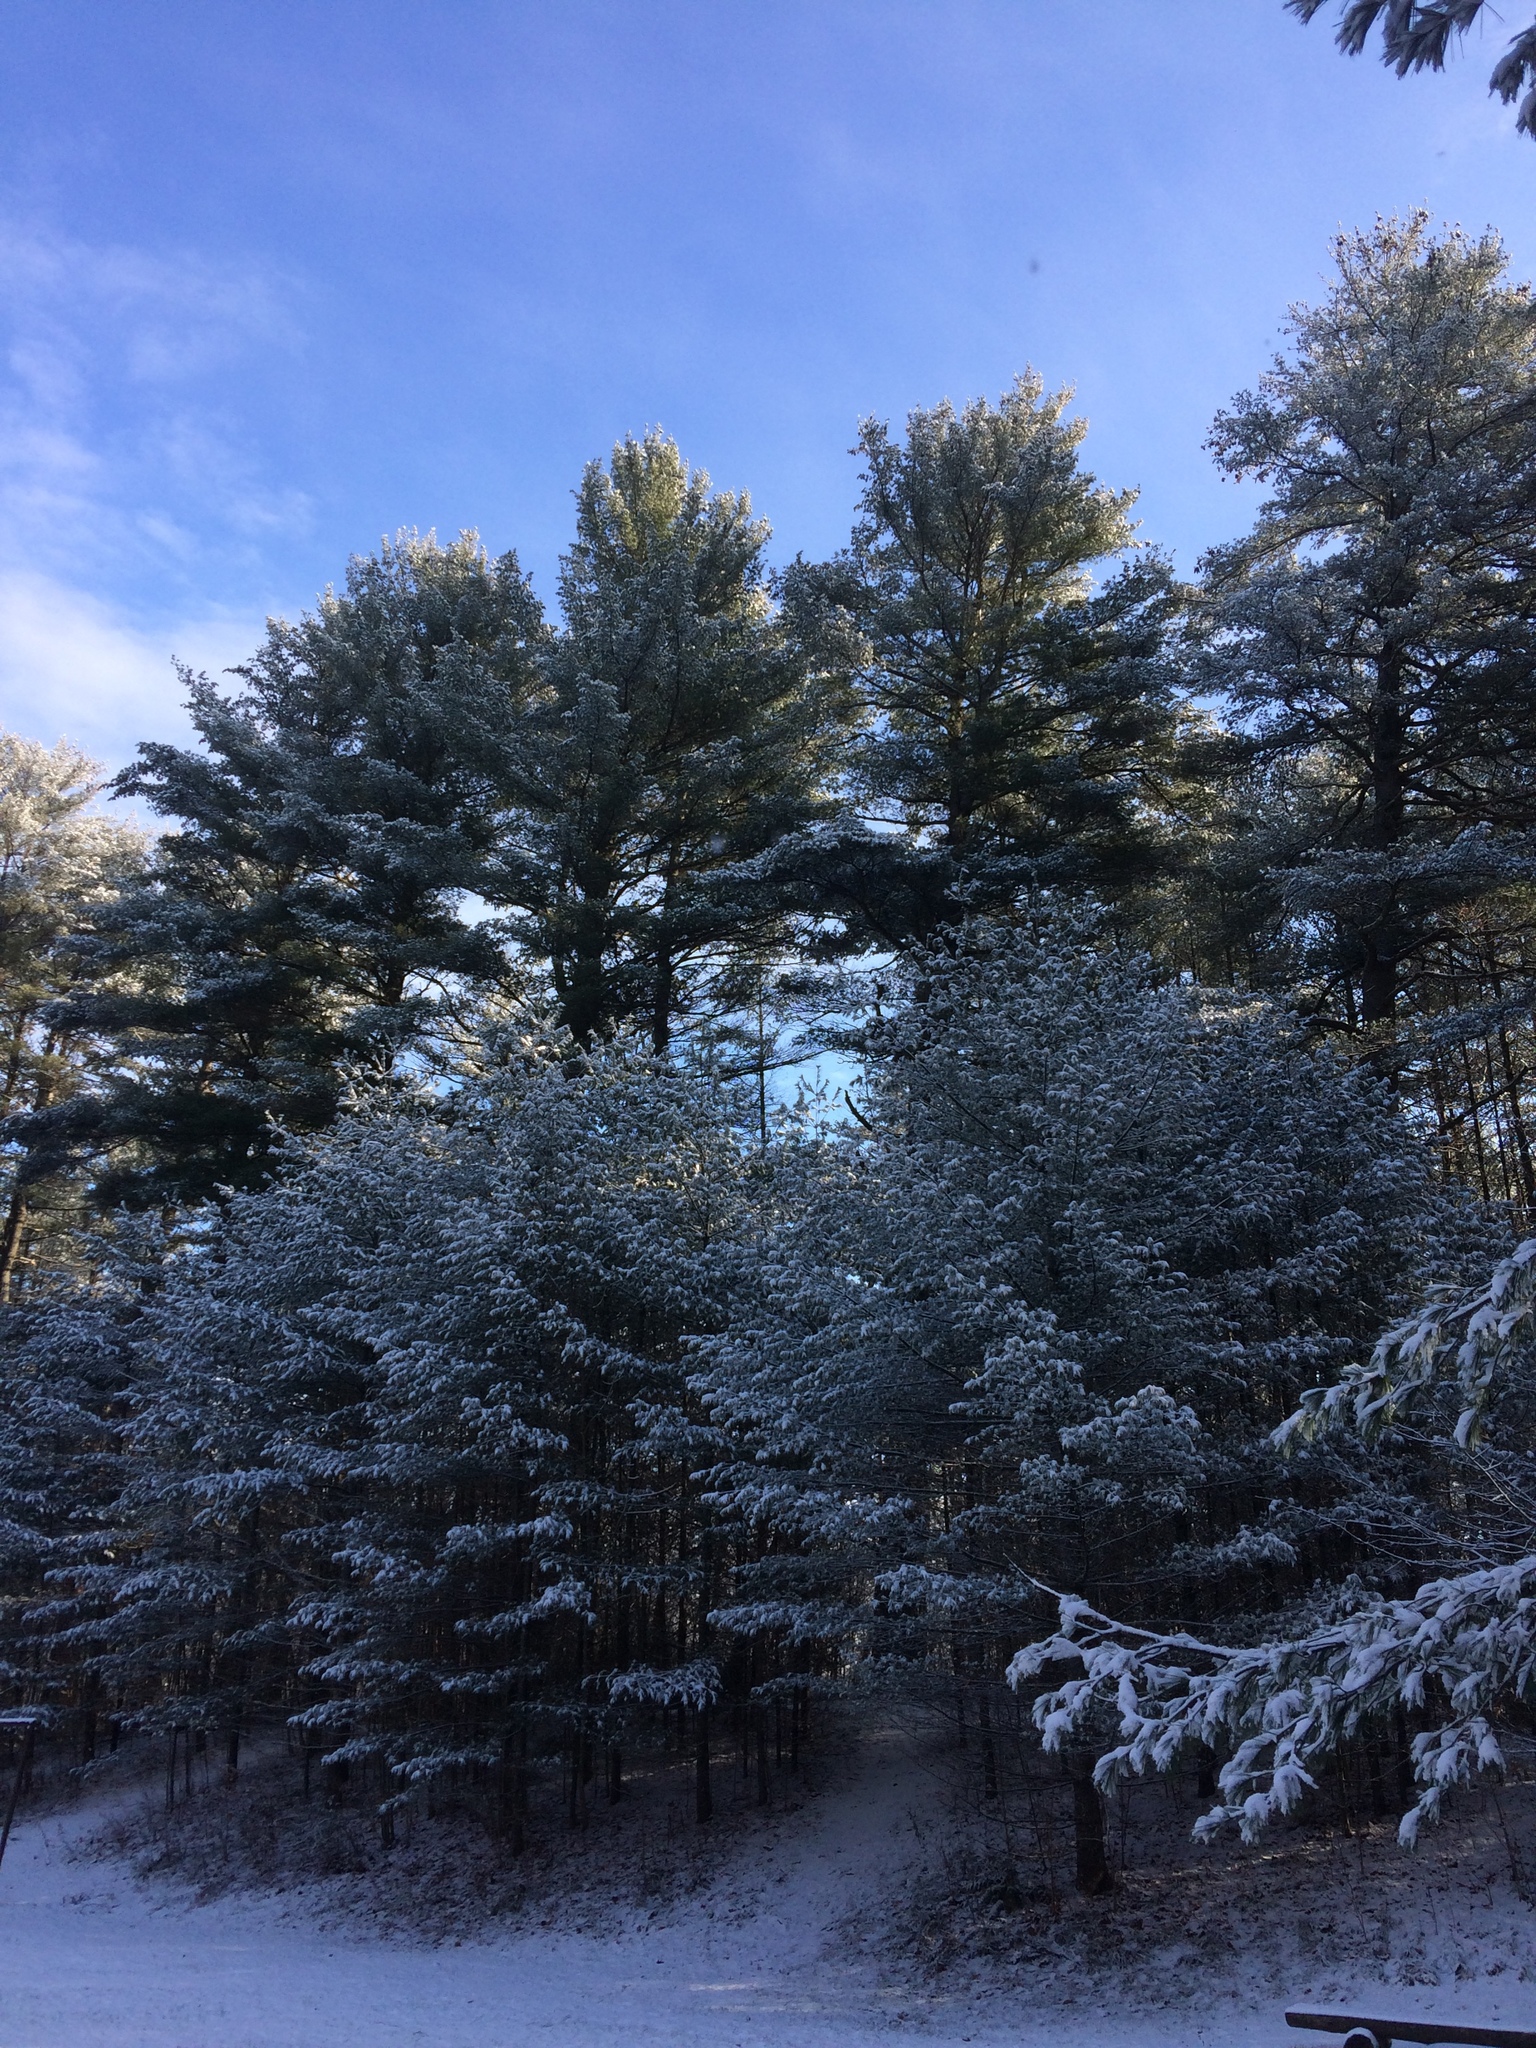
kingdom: Plantae
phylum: Tracheophyta
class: Pinopsida
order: Pinales
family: Pinaceae
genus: Pinus
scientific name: Pinus strobus
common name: Weymouth pine
